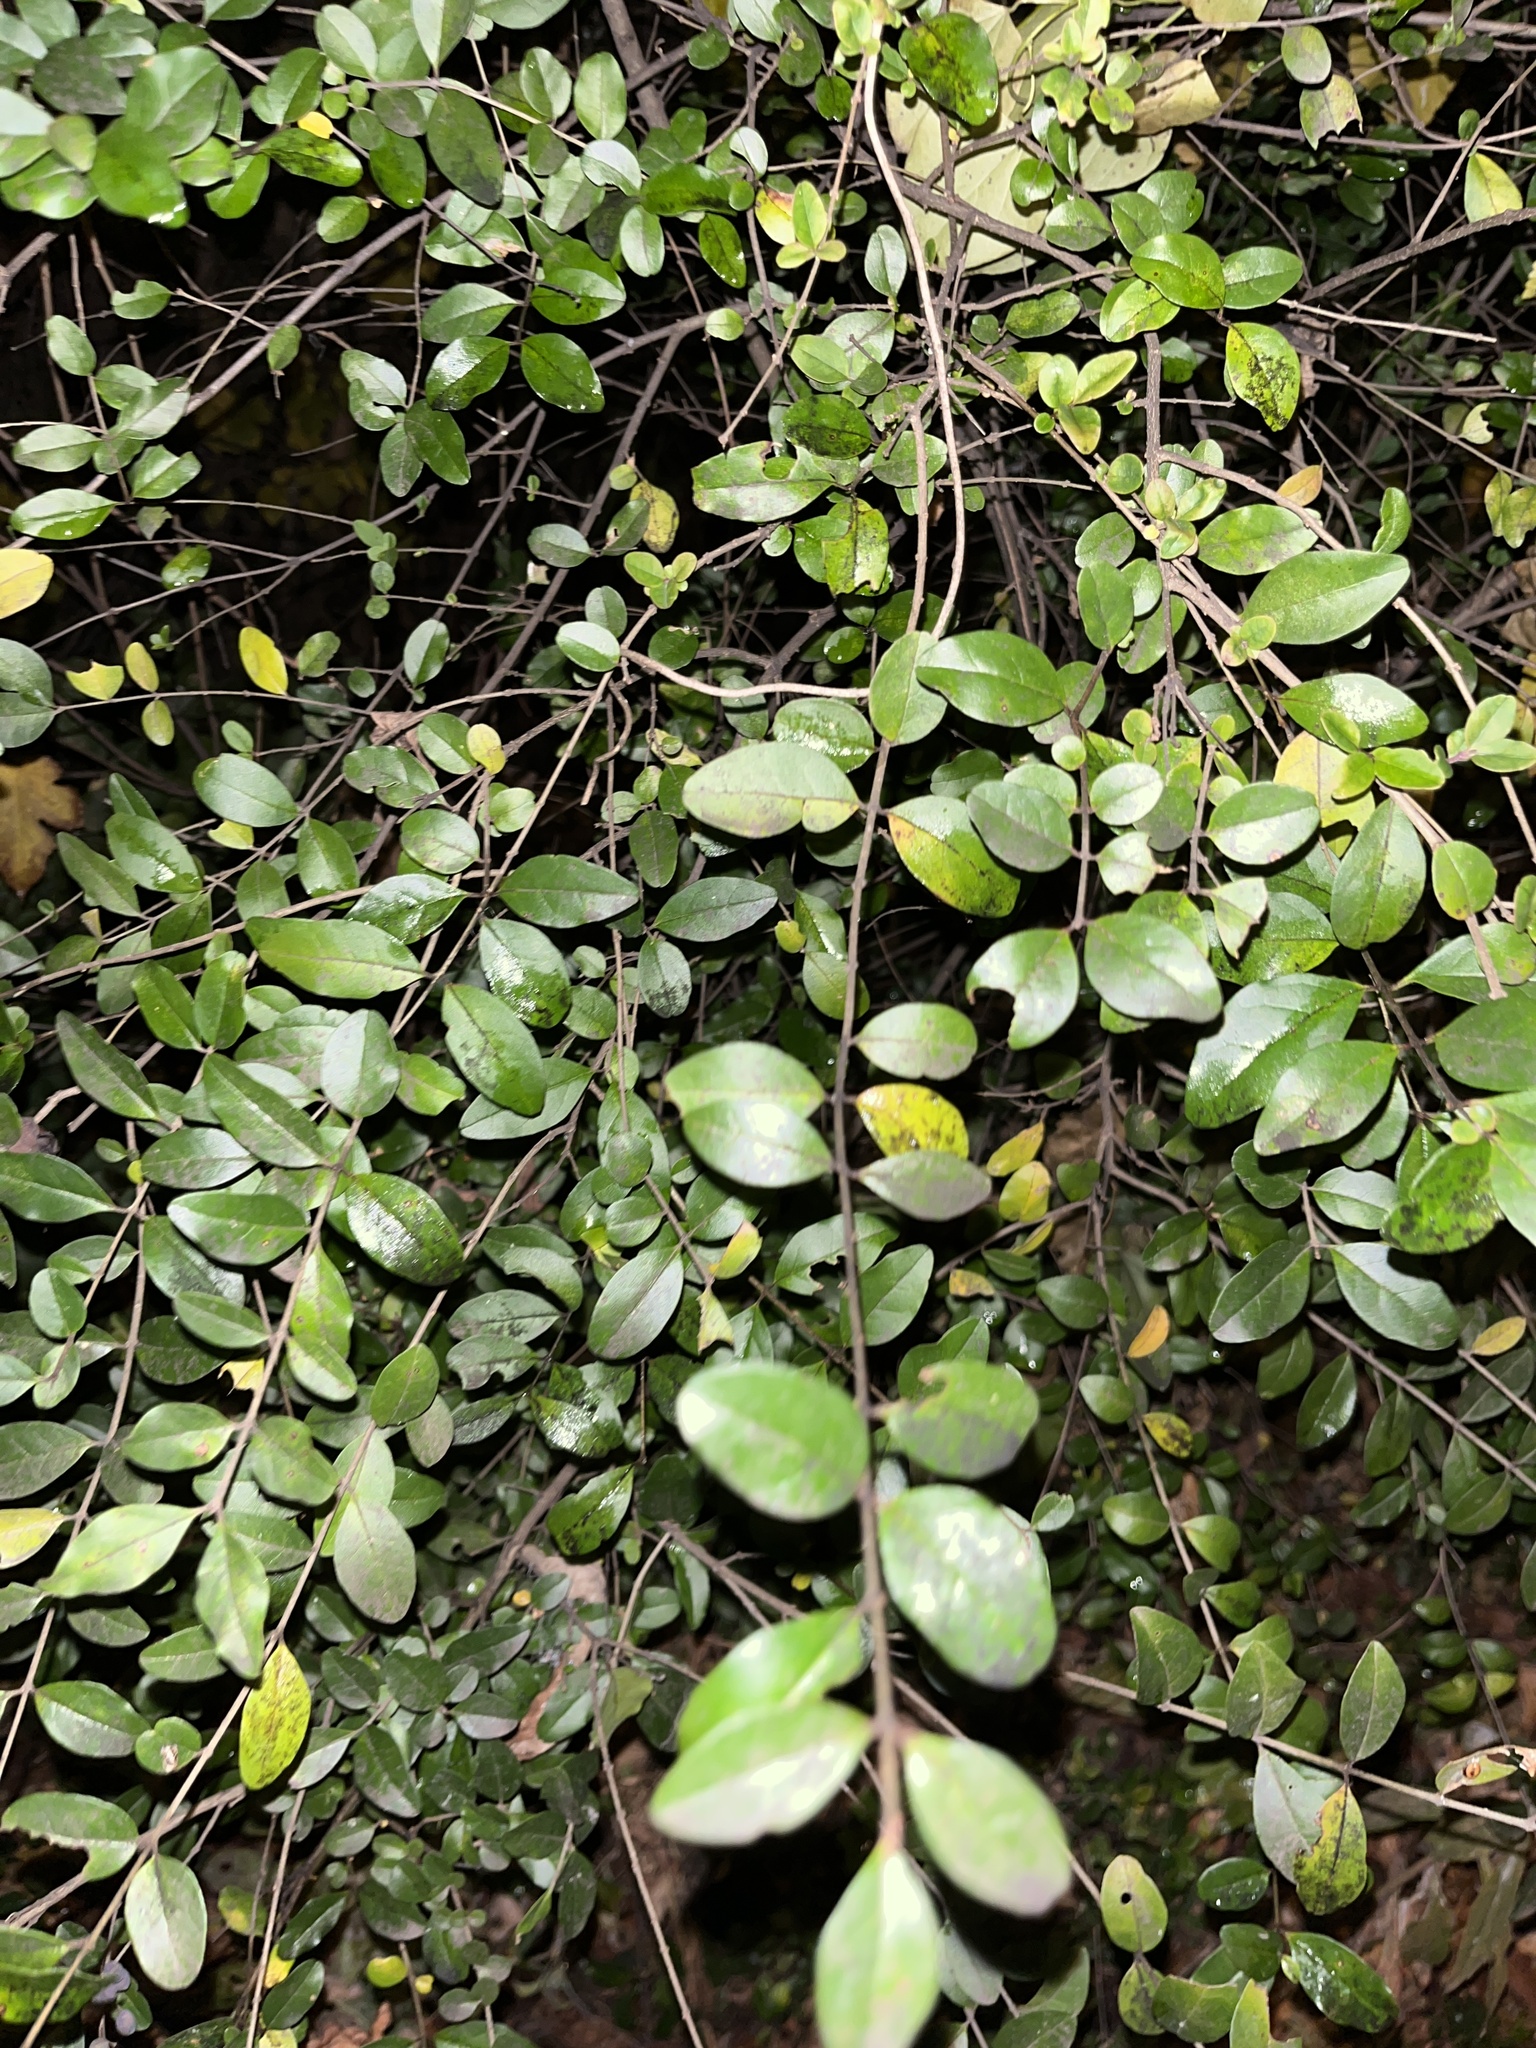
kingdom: Plantae
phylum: Tracheophyta
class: Magnoliopsida
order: Lamiales
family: Oleaceae
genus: Ligustrum
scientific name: Ligustrum sinense
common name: Chinese privet
